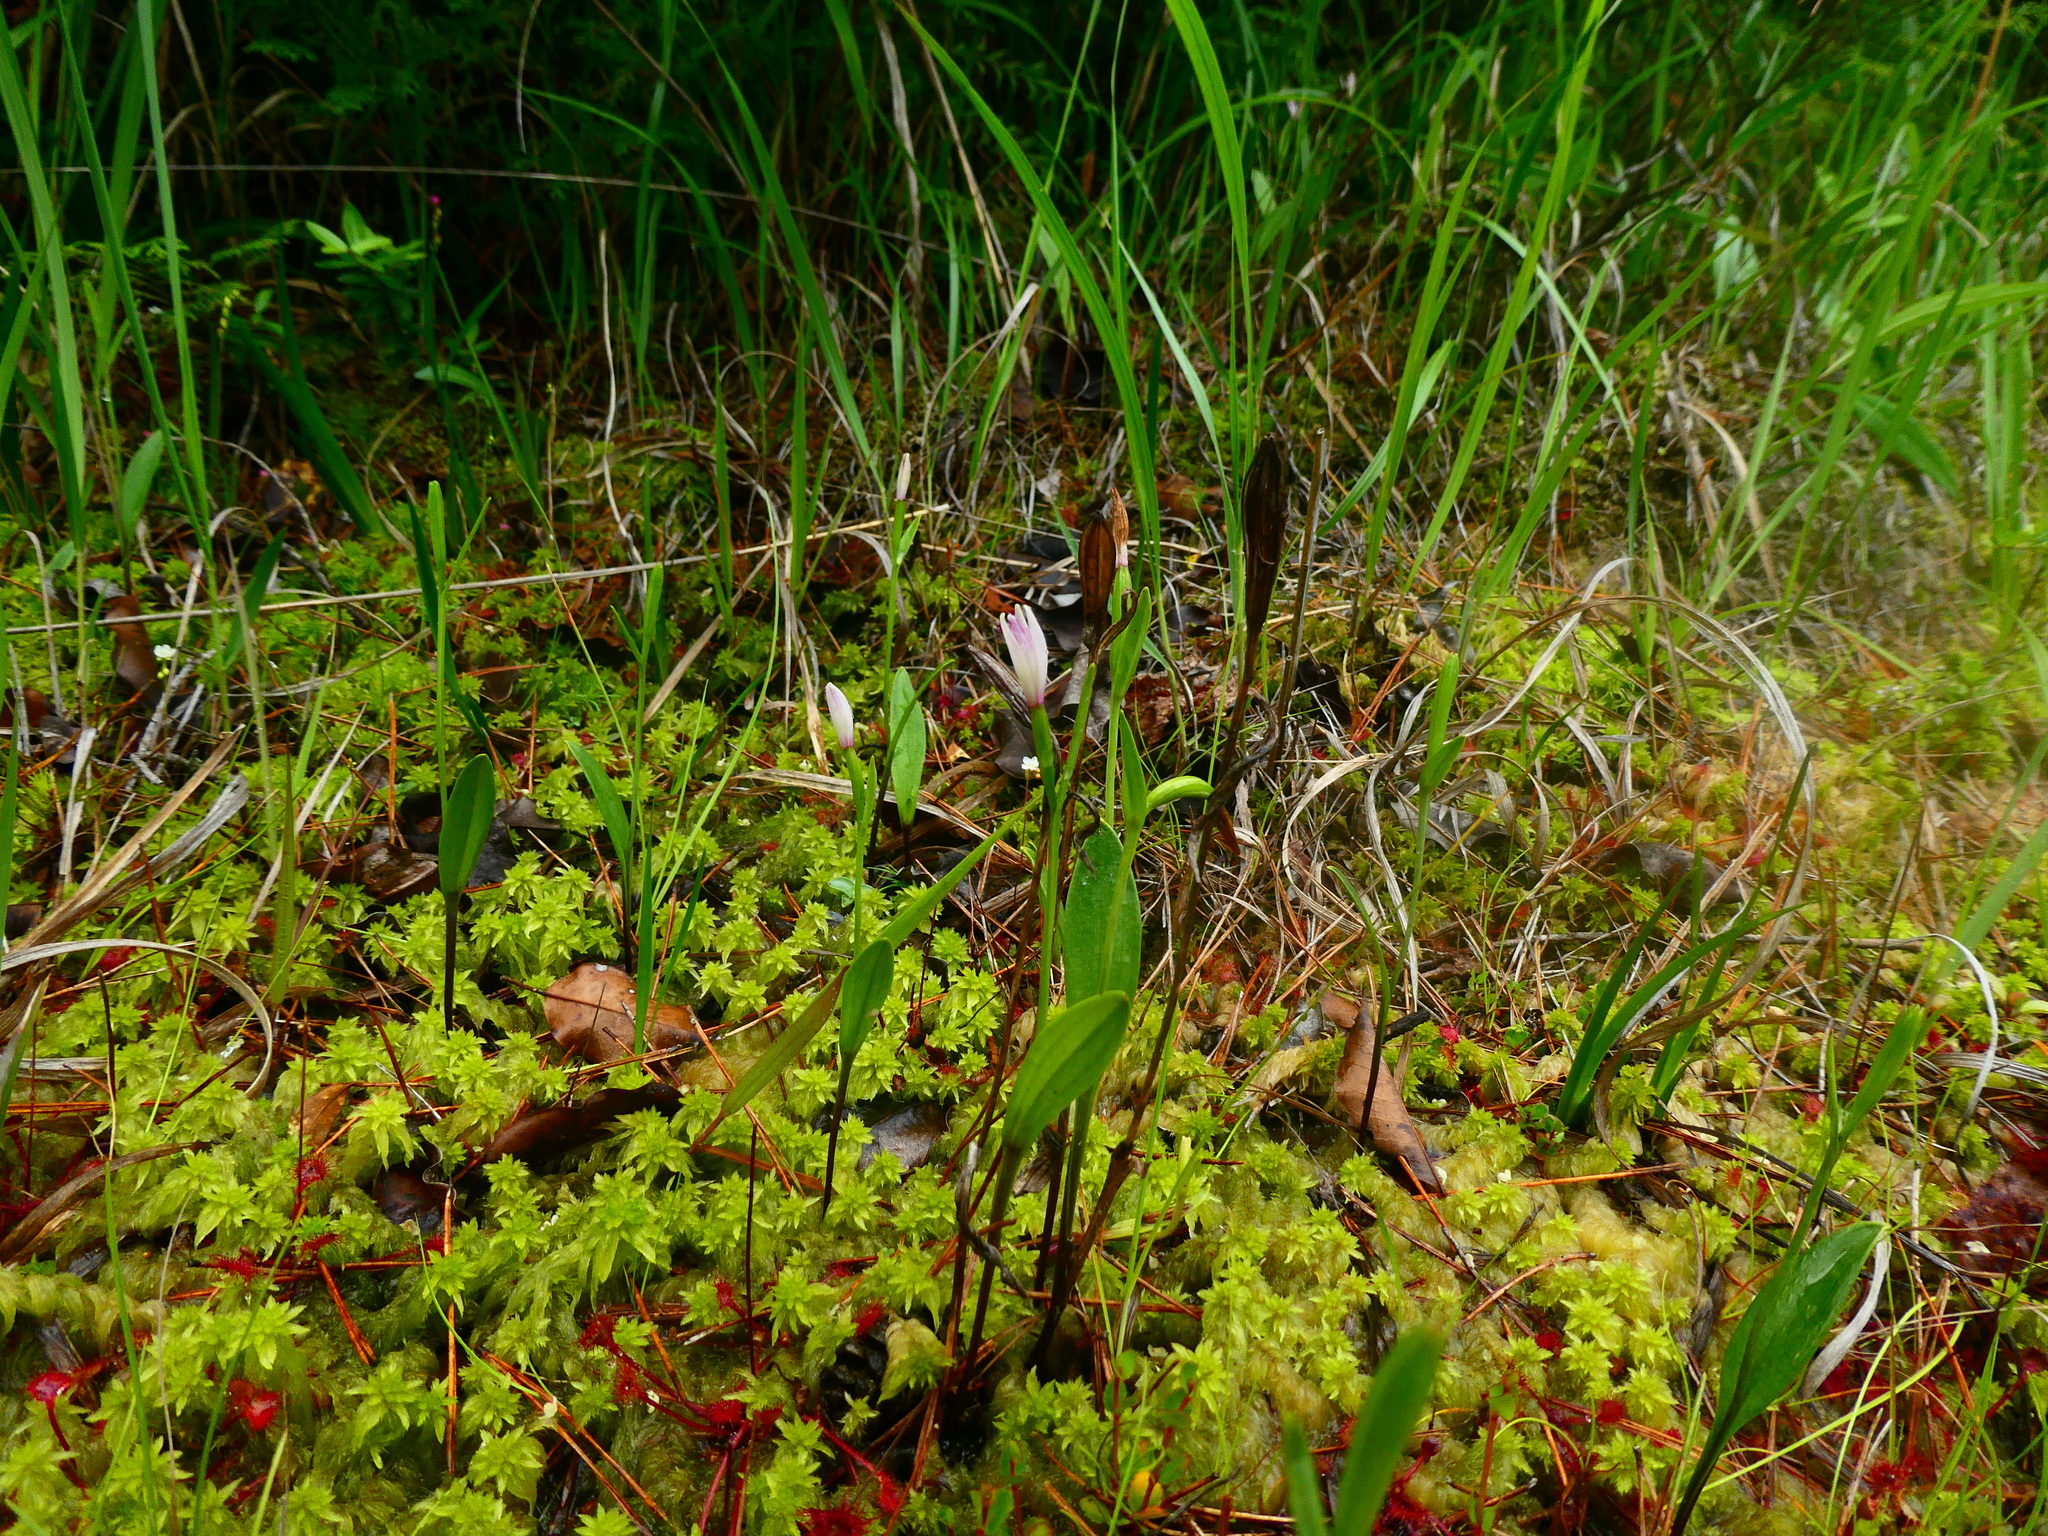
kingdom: Plantae
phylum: Tracheophyta
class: Liliopsida
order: Asparagales
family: Orchidaceae
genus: Pogonia
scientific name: Pogonia minor
